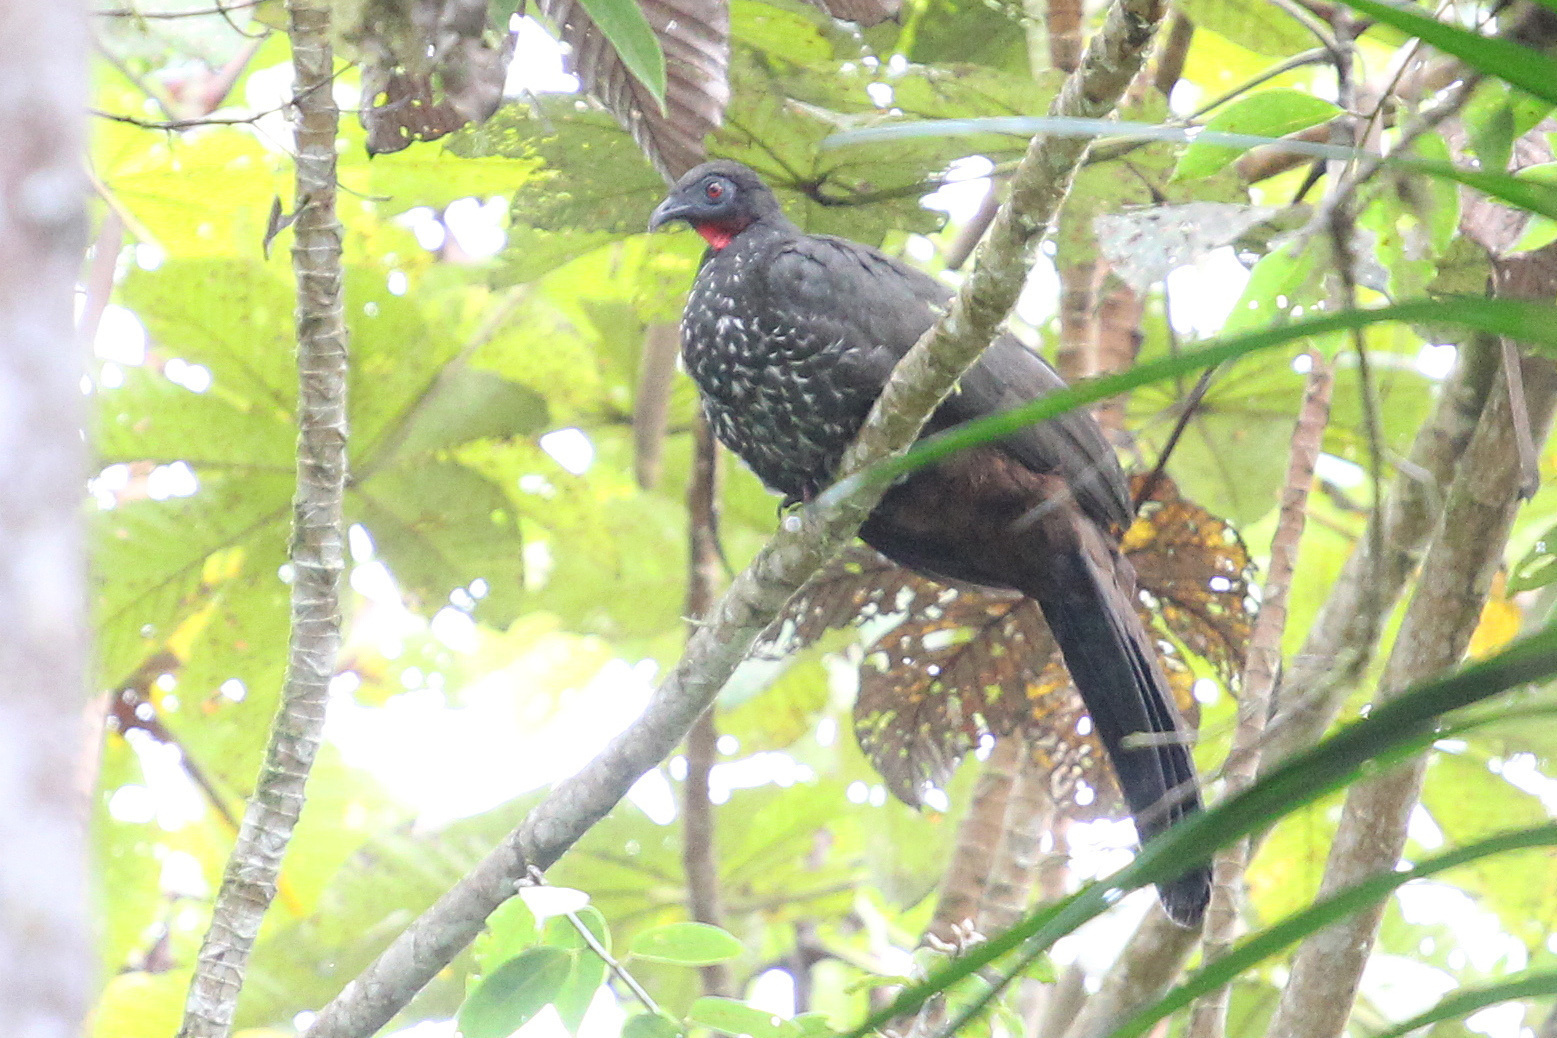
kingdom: Animalia
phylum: Chordata
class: Aves
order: Galliformes
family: Cracidae
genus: Penelope
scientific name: Penelope purpurascens
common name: Crested guan
